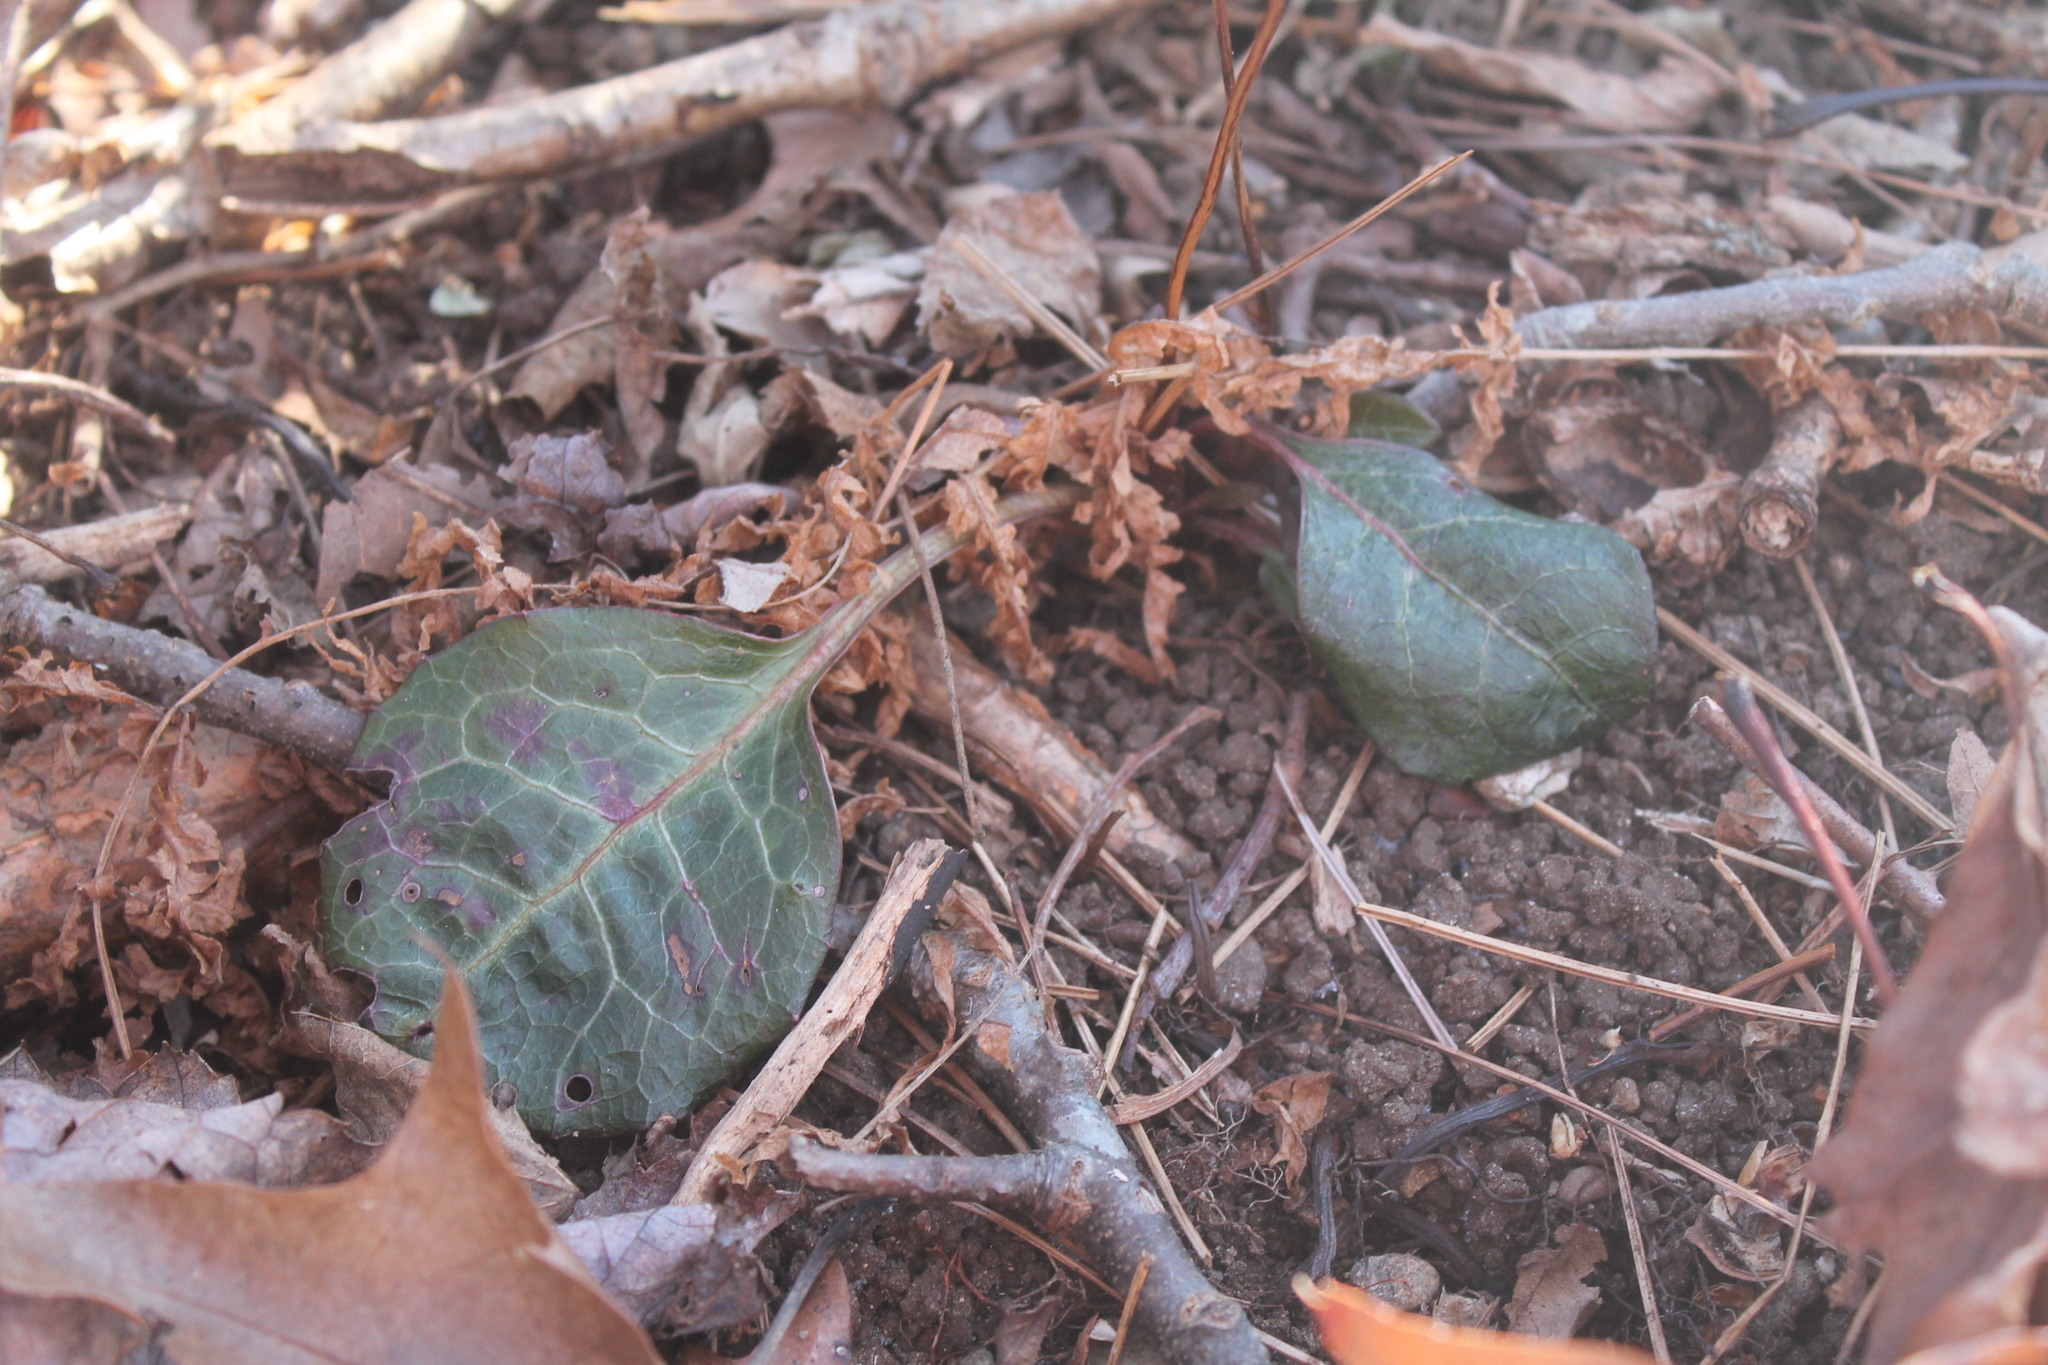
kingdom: Plantae
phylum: Tracheophyta
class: Magnoliopsida
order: Ericales
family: Ericaceae
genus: Pyrola
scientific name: Pyrola americana
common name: American wintergreen
